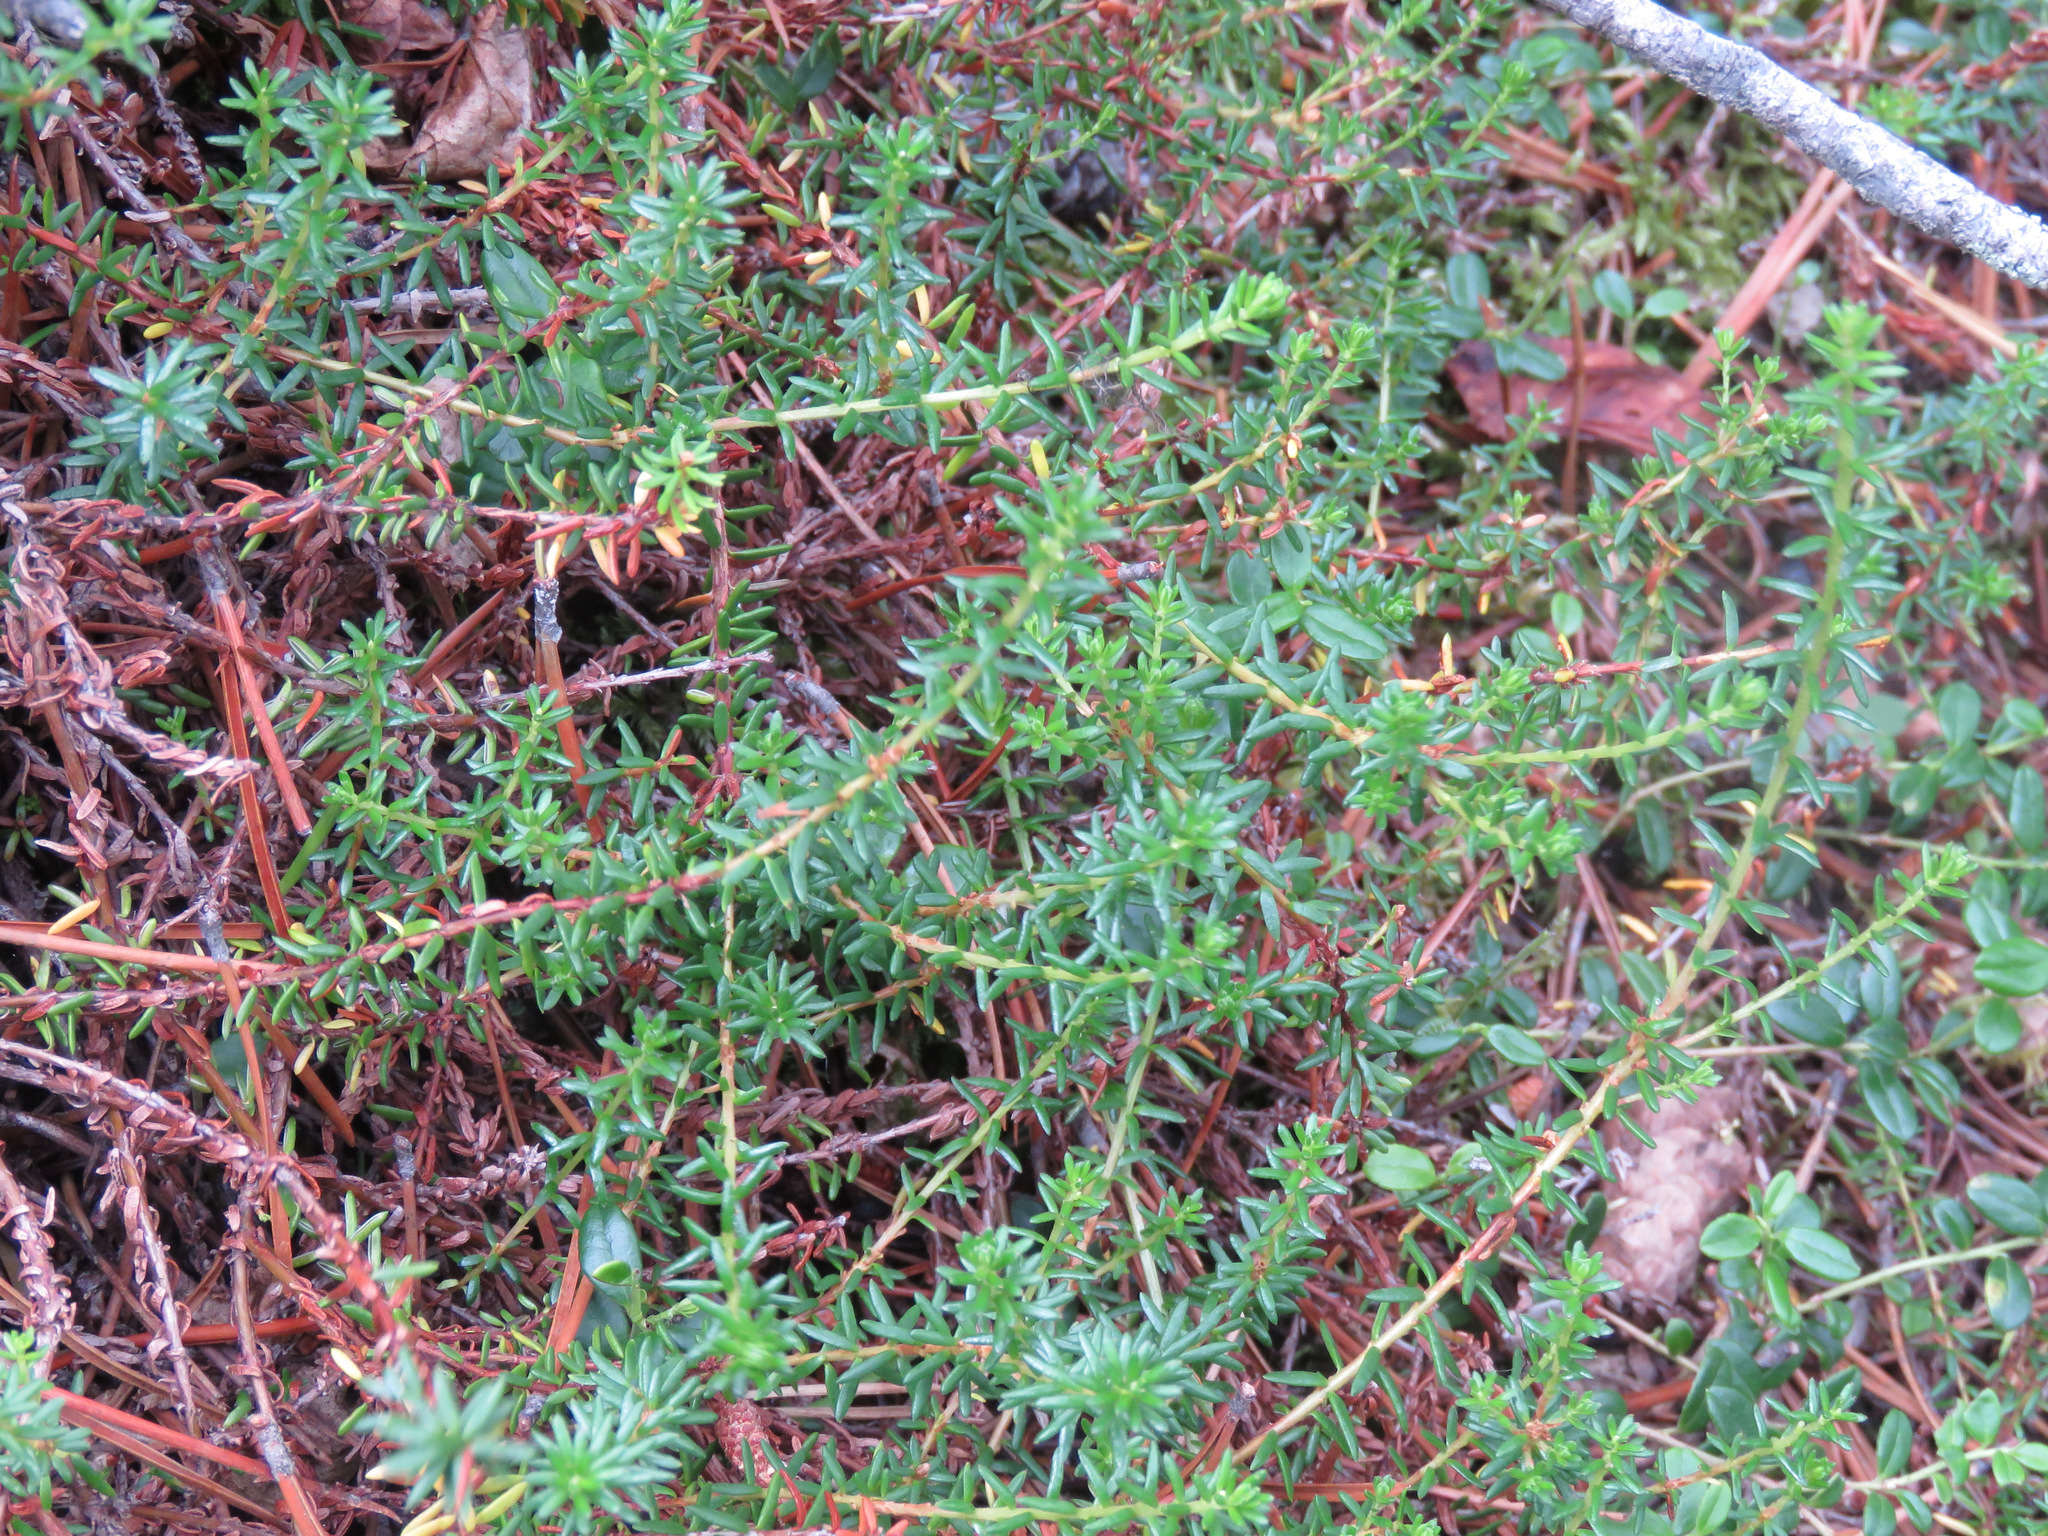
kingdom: Plantae
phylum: Tracheophyta
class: Magnoliopsida
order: Ericales
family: Ericaceae
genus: Empetrum
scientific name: Empetrum nigrum
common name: Black crowberry
